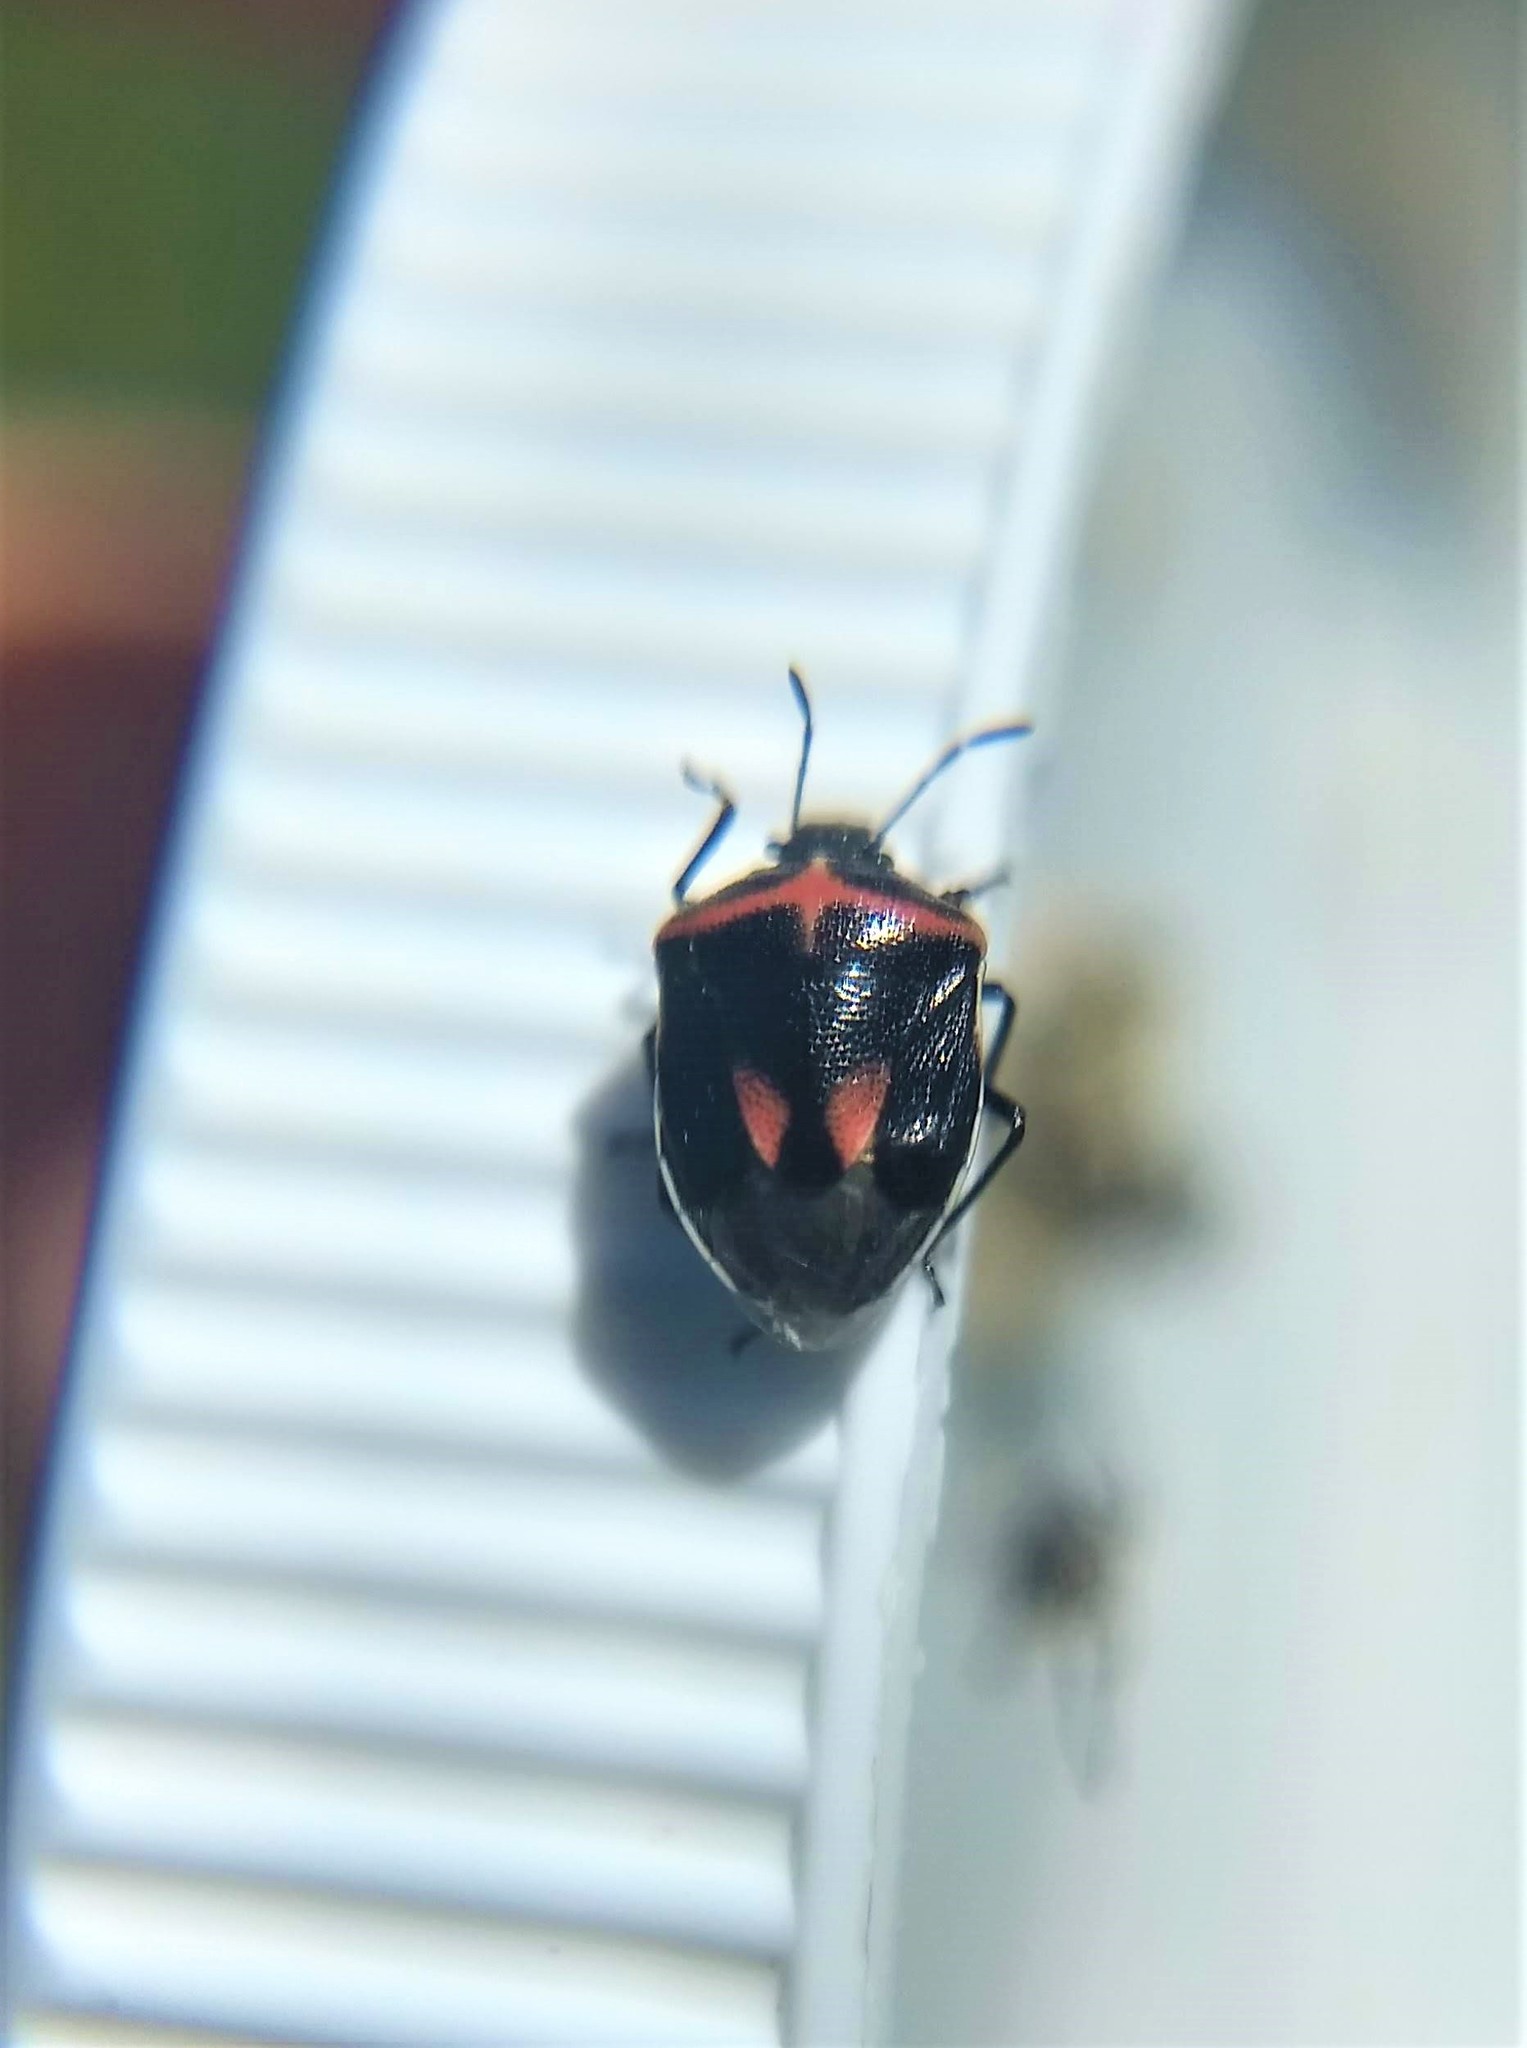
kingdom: Animalia
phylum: Arthropoda
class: Insecta
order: Hemiptera
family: Pentatomidae
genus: Cosmopepla
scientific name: Cosmopepla lintneriana
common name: Twice-stabbed stink bug
